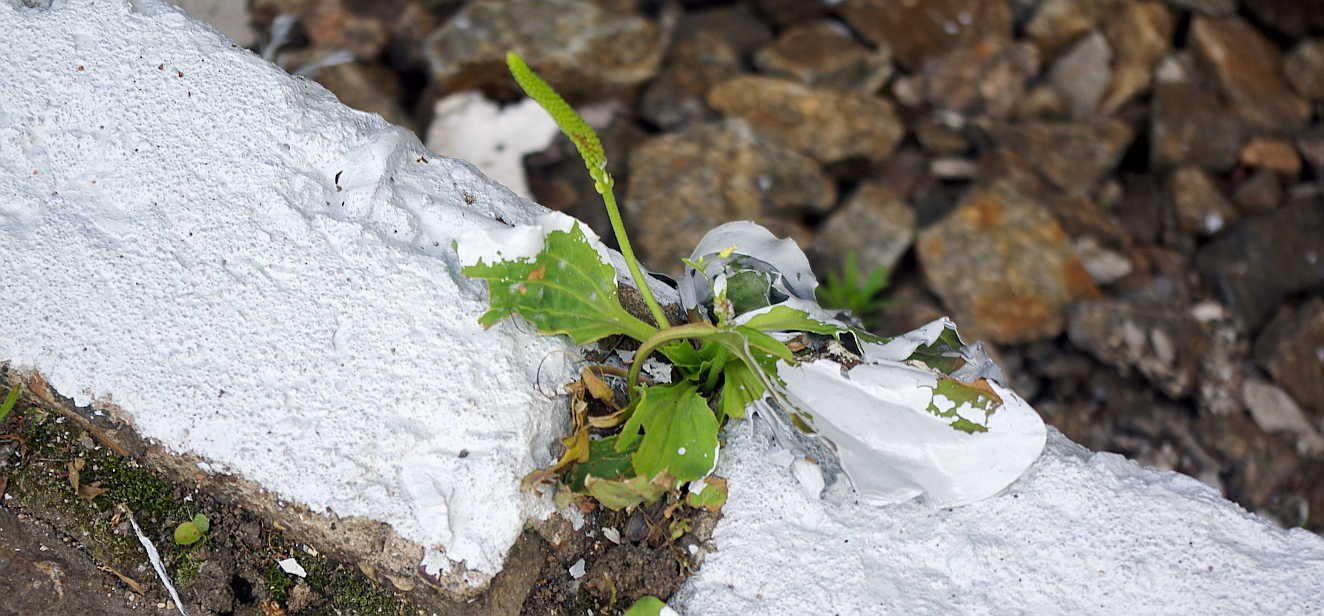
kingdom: Plantae
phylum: Tracheophyta
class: Magnoliopsida
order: Lamiales
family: Plantaginaceae
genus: Plantago
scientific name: Plantago major
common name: Common plantain
